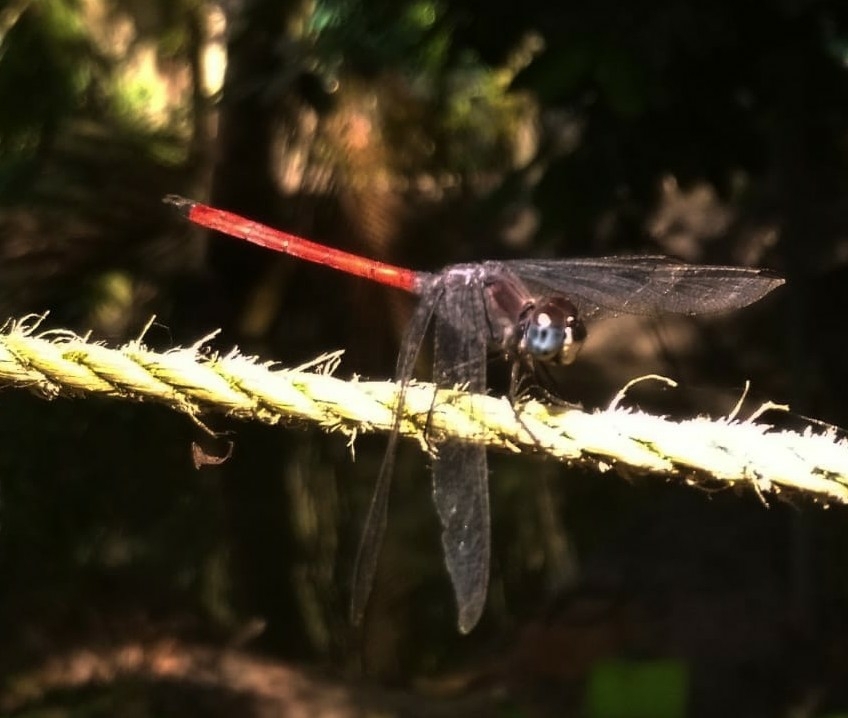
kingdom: Animalia
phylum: Arthropoda
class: Insecta
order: Odonata
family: Libellulidae
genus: Lathrecista
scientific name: Lathrecista asiatica
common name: Scarlet grenadier
